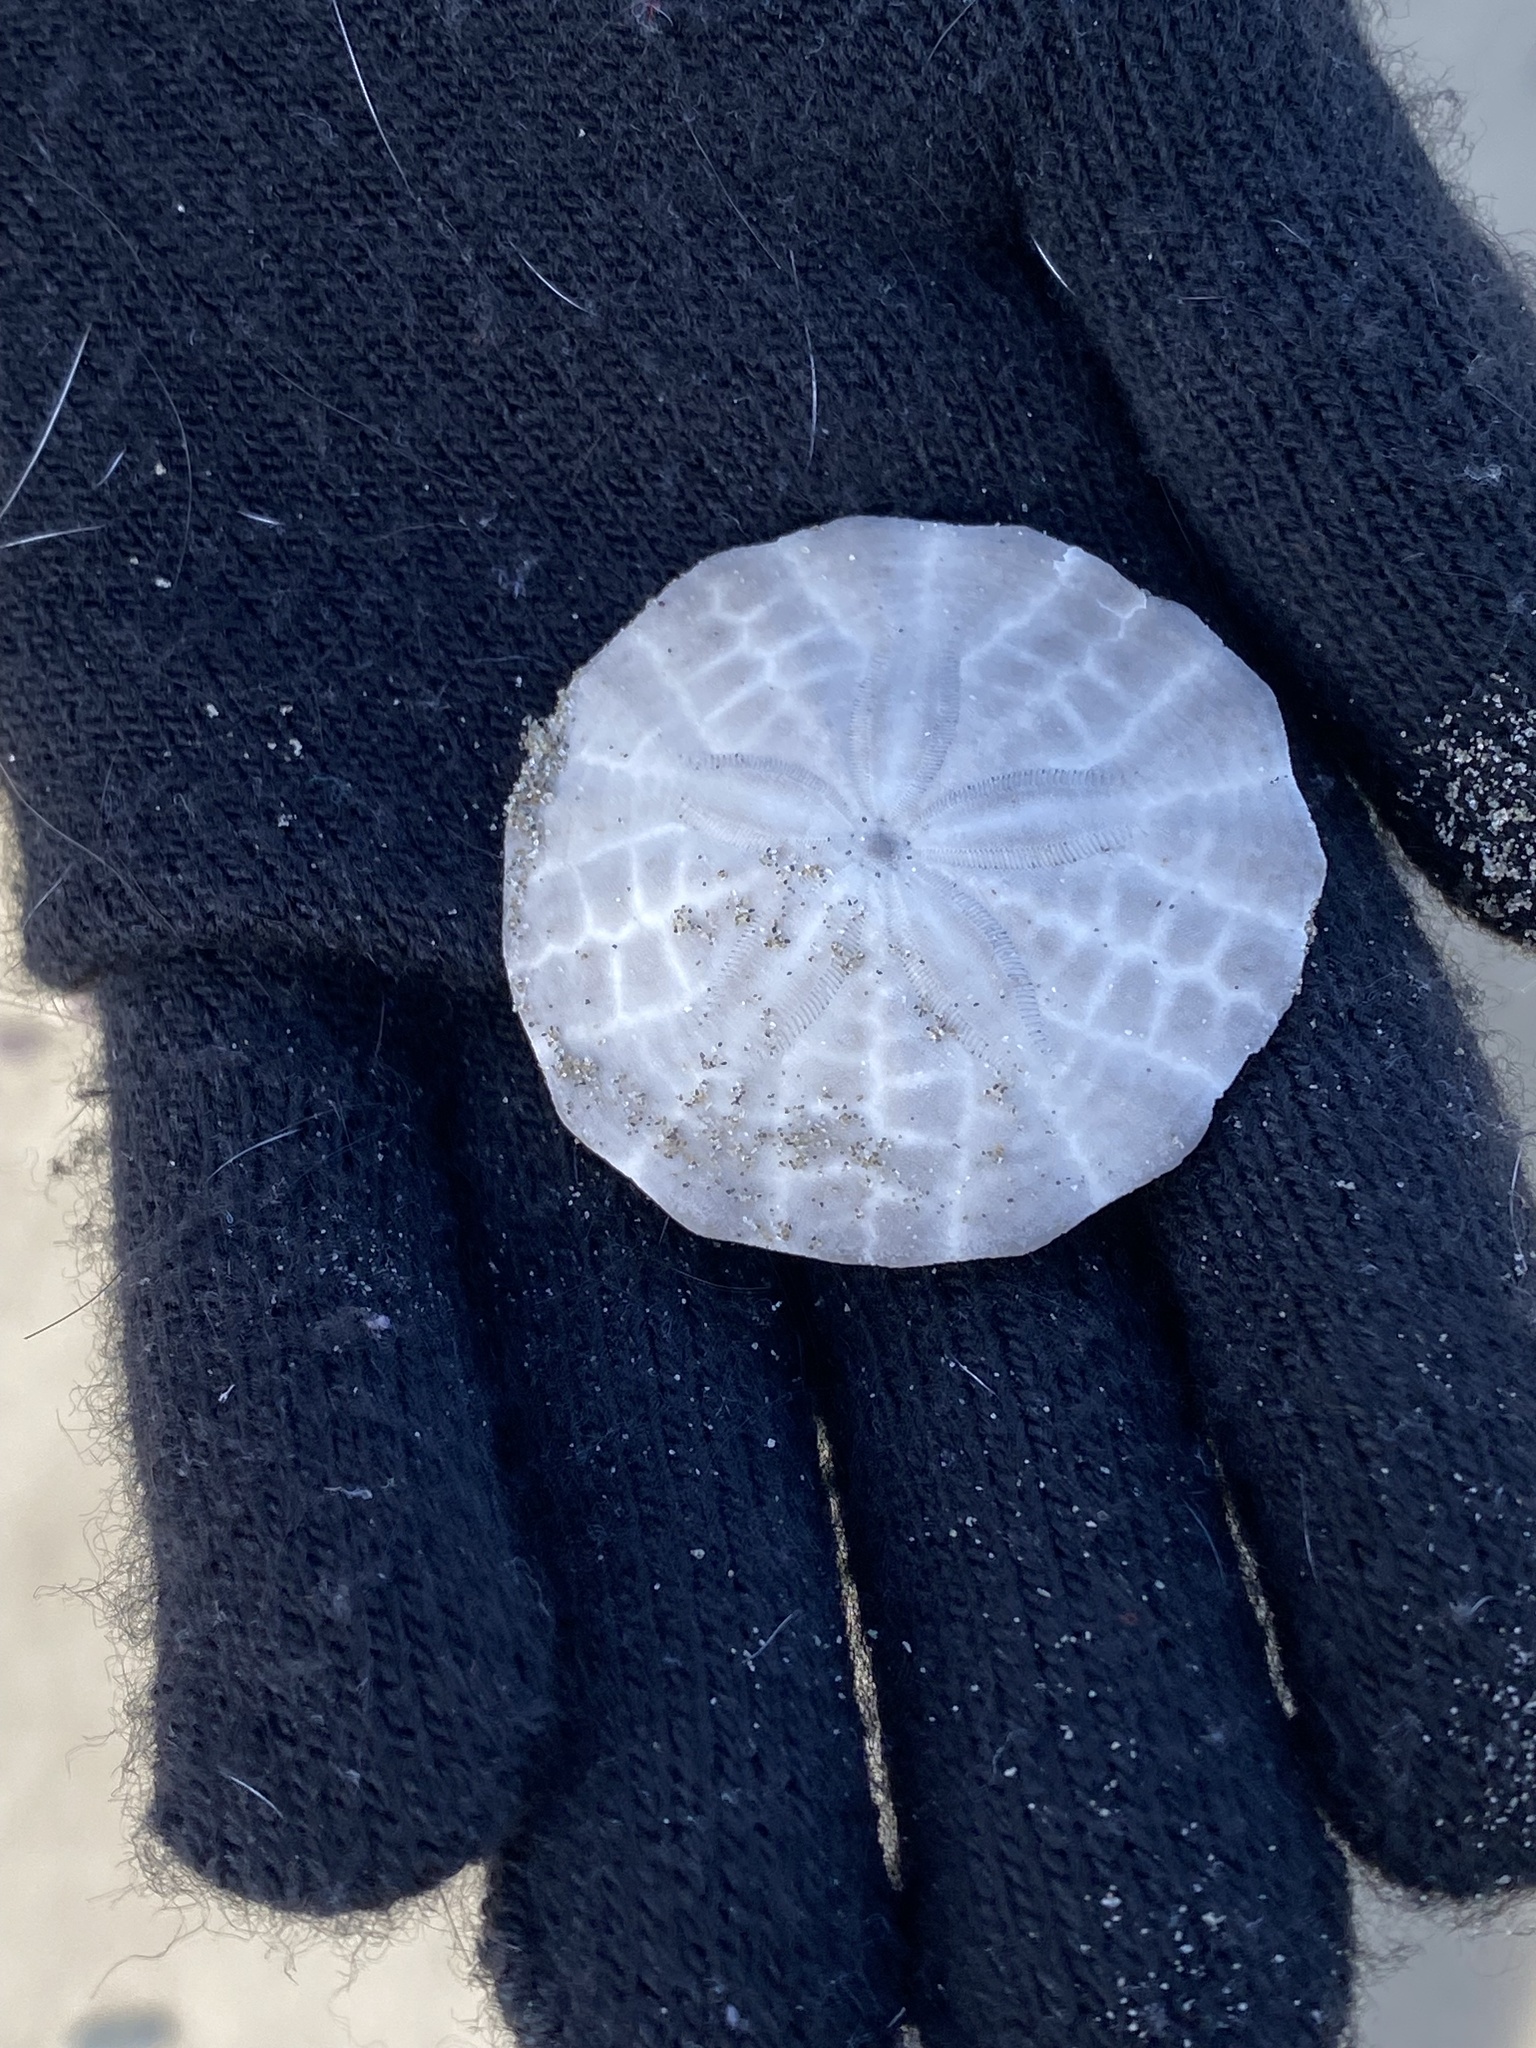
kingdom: Animalia
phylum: Echinodermata
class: Echinoidea
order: Echinolampadacea
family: Echinarachniidae
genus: Echinarachnius
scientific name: Echinarachnius parma
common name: Common sand dollar
